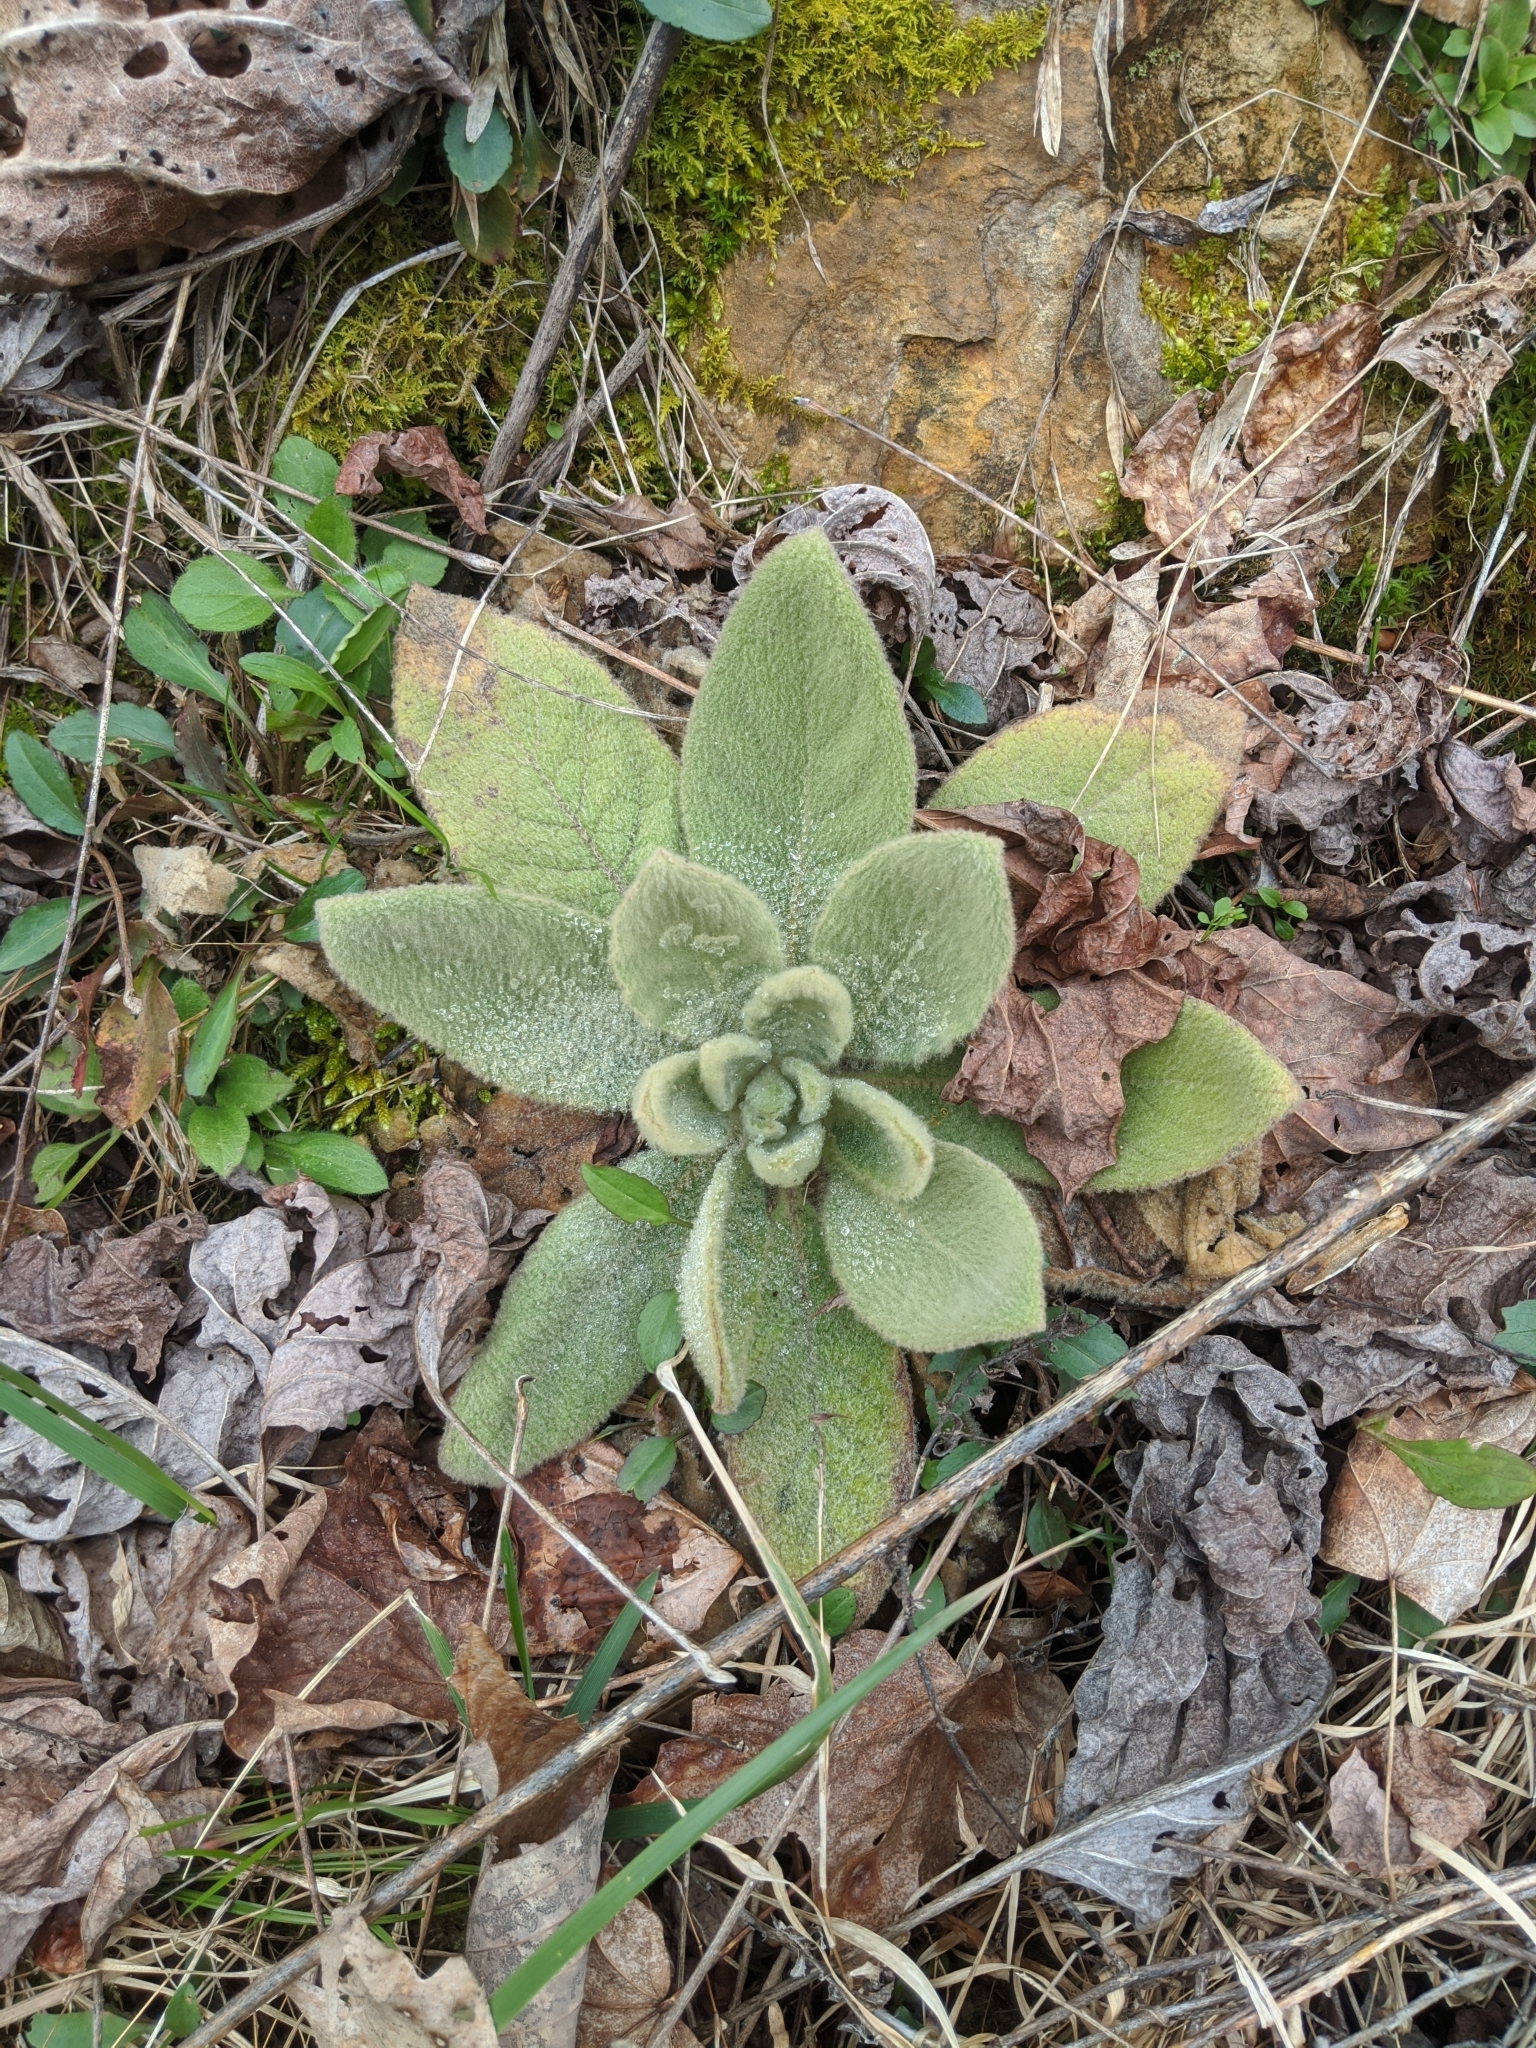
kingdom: Plantae
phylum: Tracheophyta
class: Magnoliopsida
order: Lamiales
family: Scrophulariaceae
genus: Verbascum
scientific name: Verbascum thapsus
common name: Common mullein
